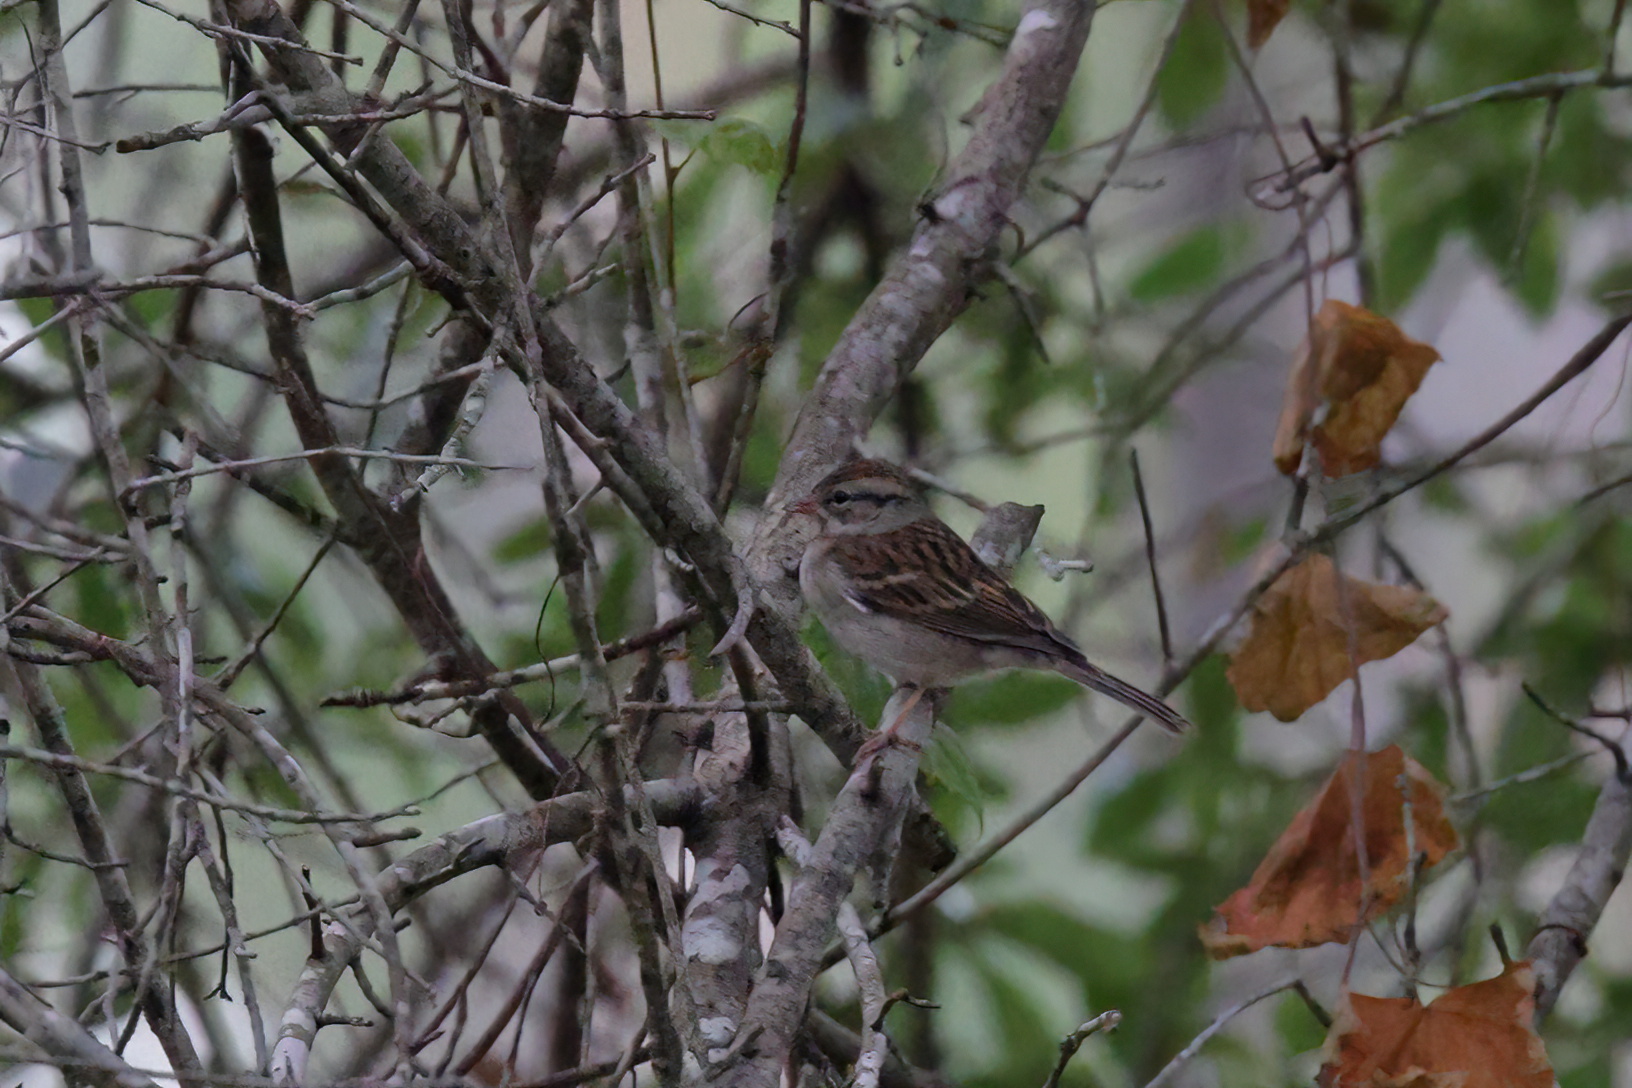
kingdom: Animalia
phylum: Chordata
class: Aves
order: Passeriformes
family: Passerellidae
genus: Spizella
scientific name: Spizella passerina
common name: Chipping sparrow
